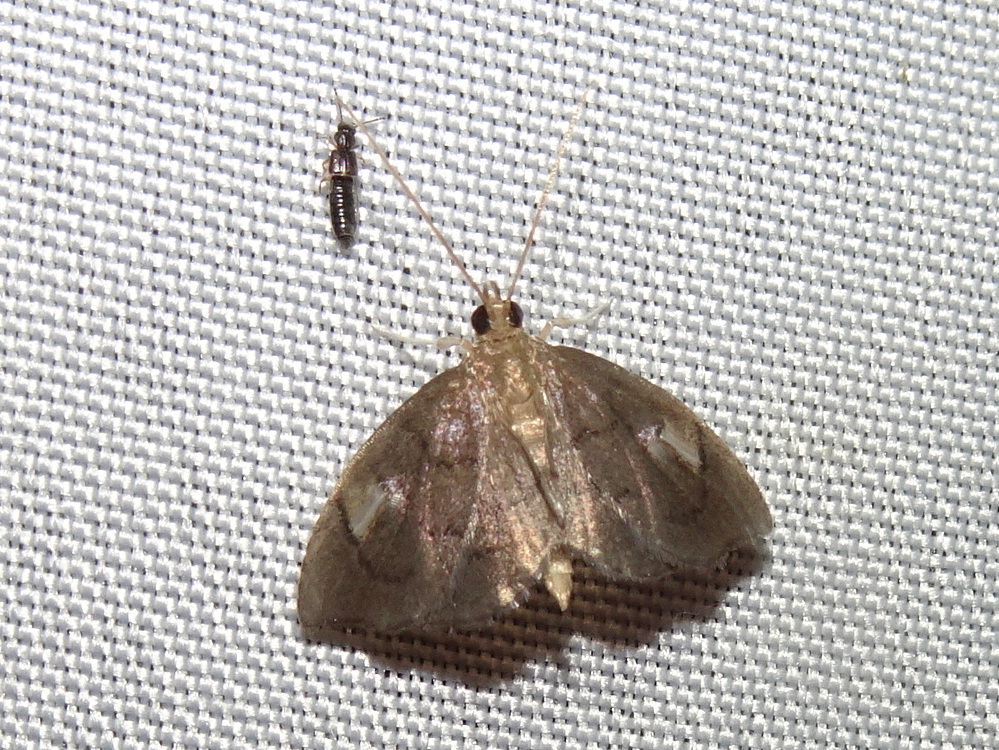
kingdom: Animalia
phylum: Arthropoda
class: Insecta
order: Lepidoptera
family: Crambidae
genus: Perispasta
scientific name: Perispasta caeculalis
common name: Titian peale's moth
